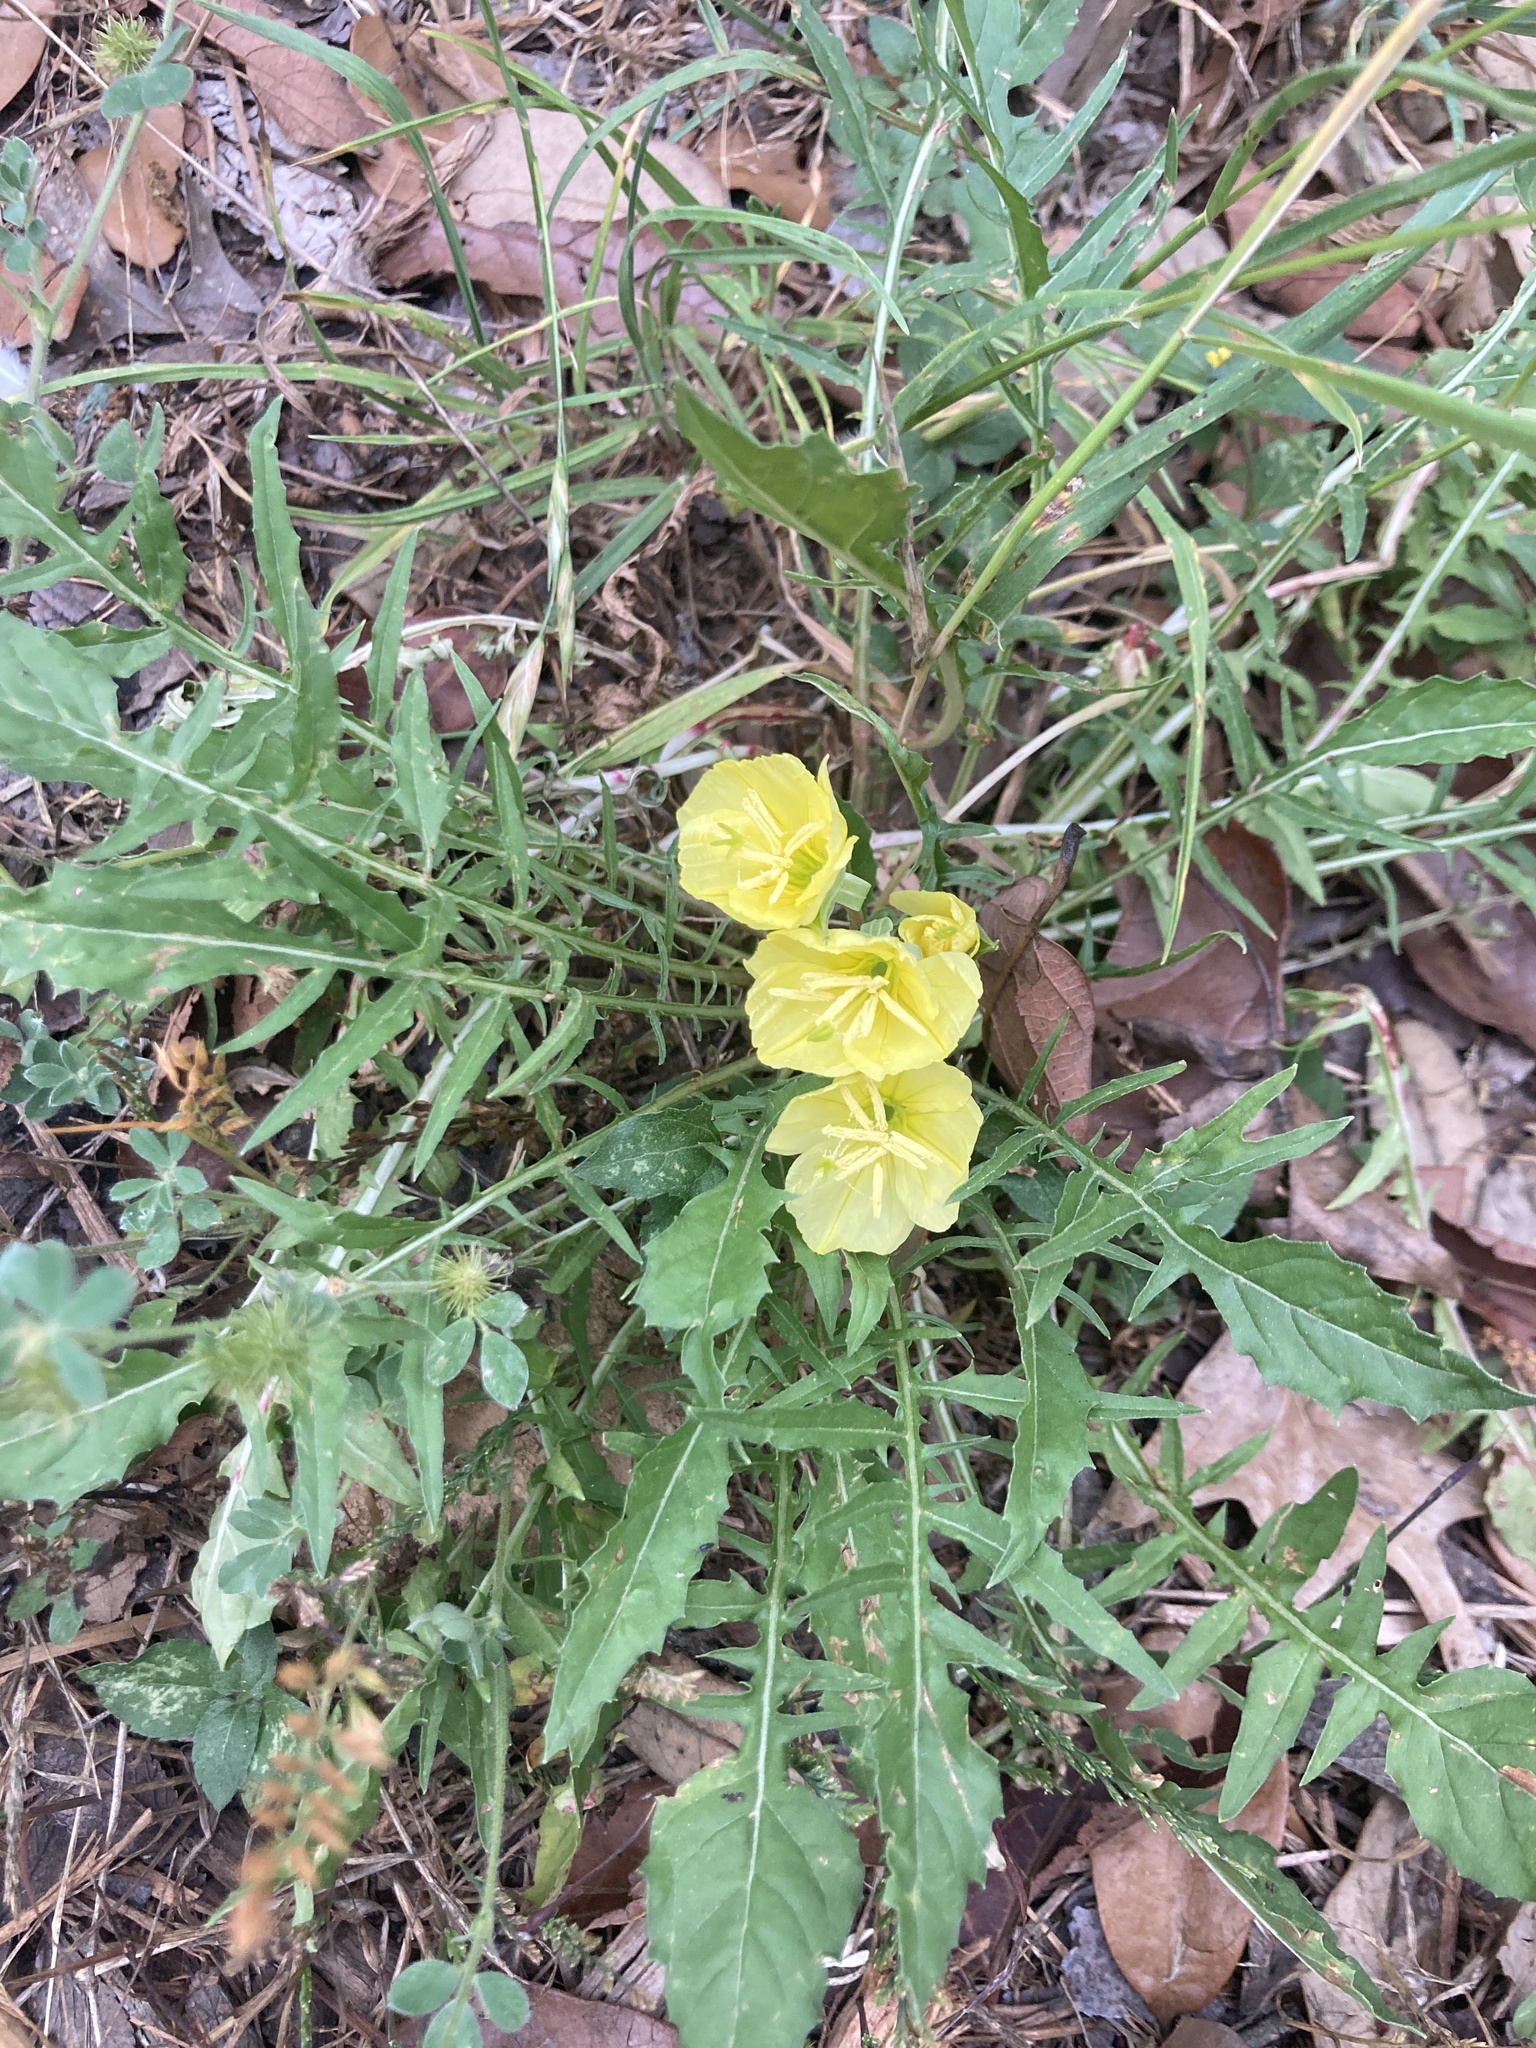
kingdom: Plantae
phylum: Tracheophyta
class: Magnoliopsida
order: Myrtales
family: Onagraceae
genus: Oenothera
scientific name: Oenothera triloba
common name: Sessile evening-primrose
